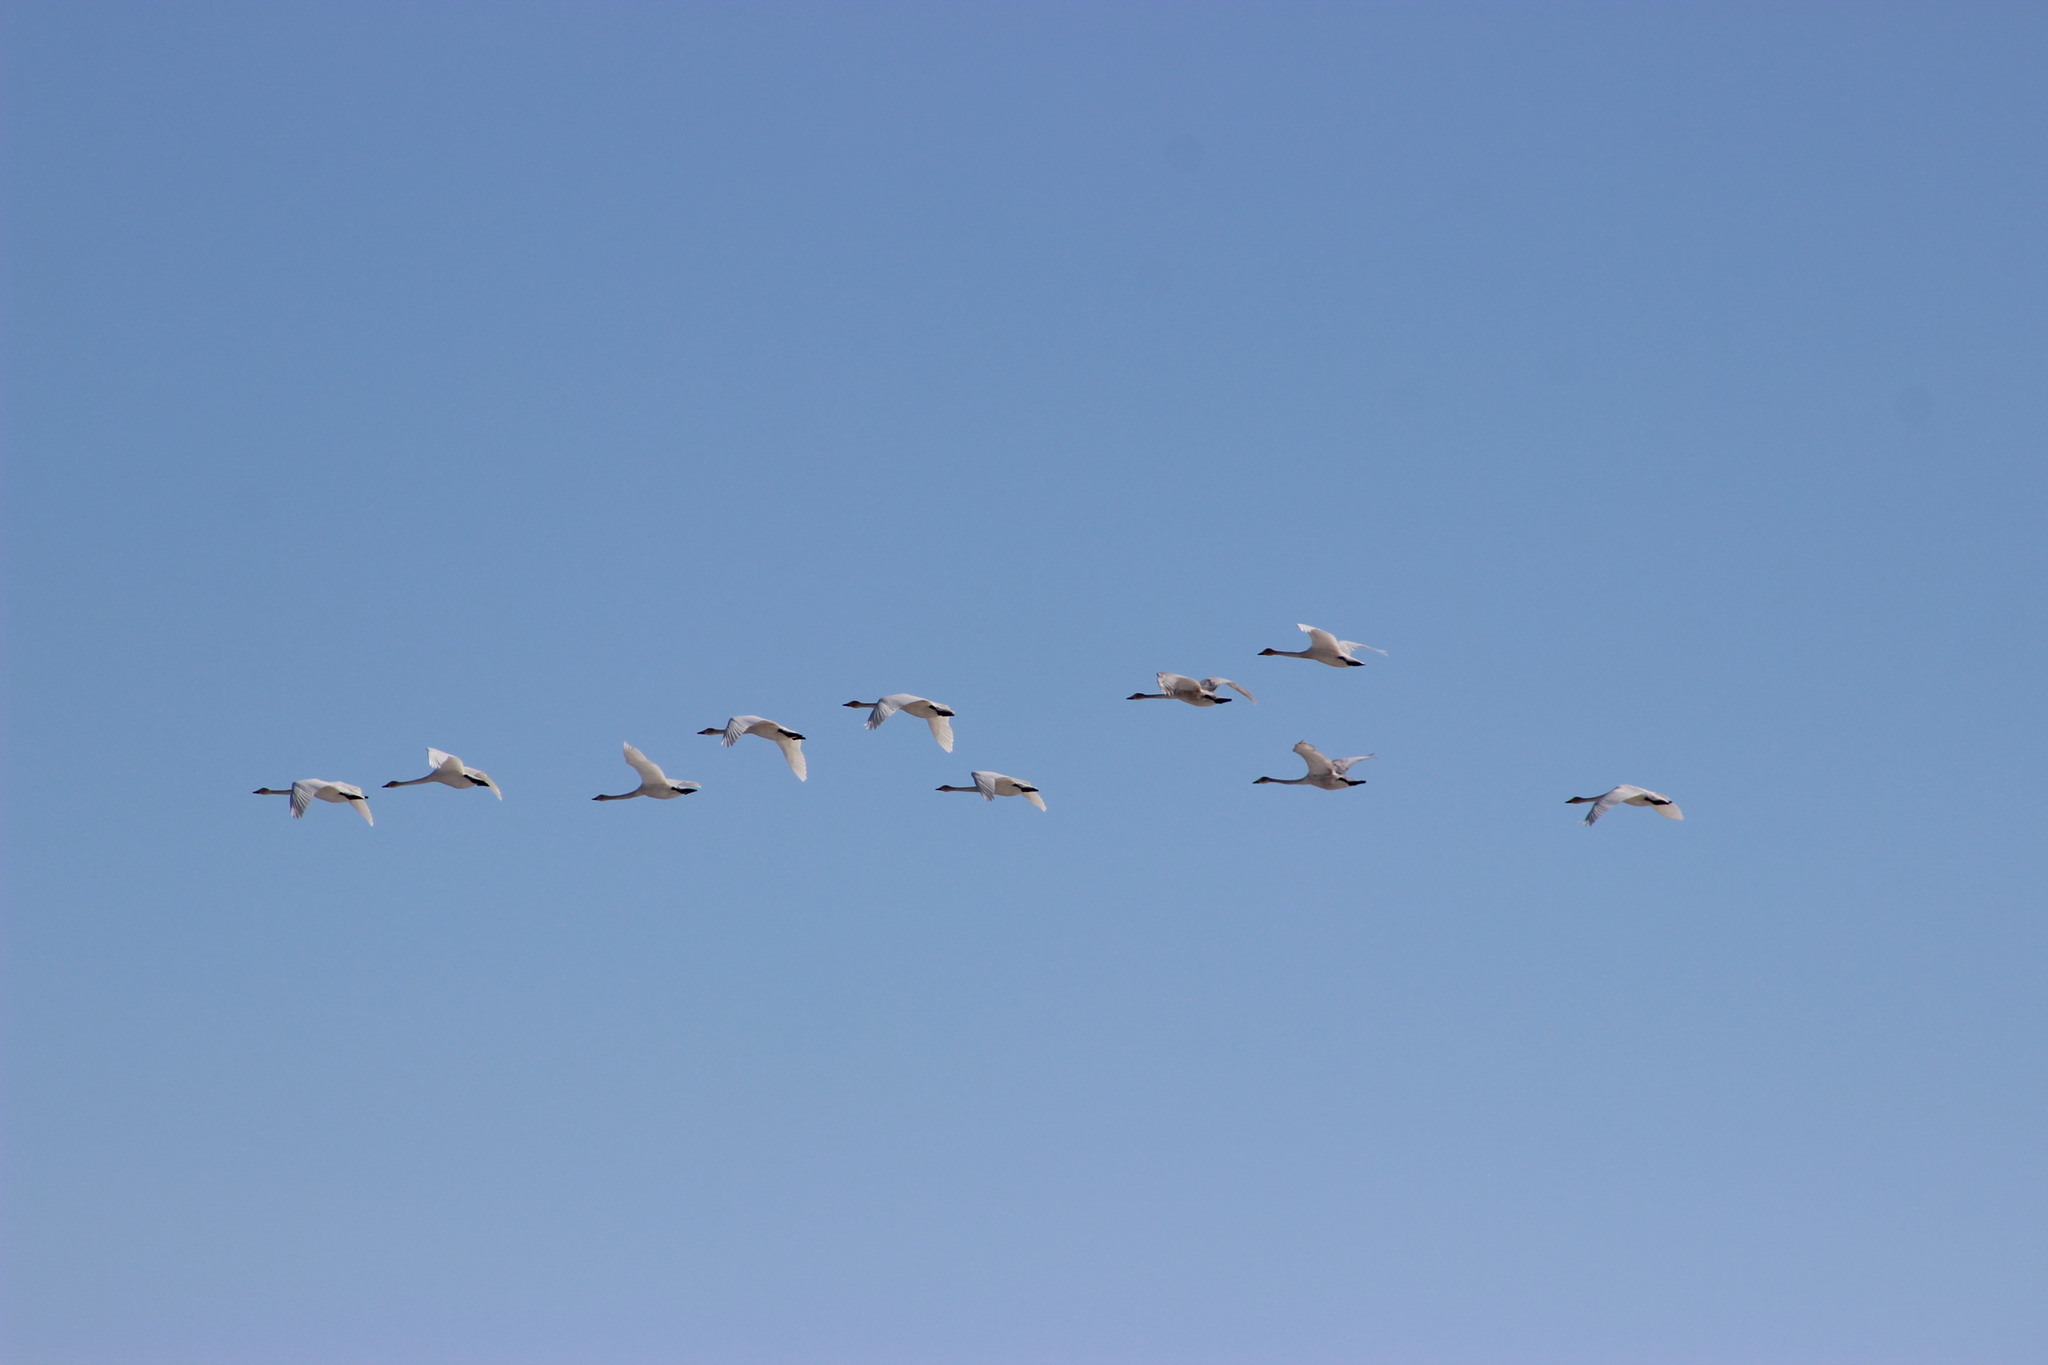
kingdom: Animalia
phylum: Chordata
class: Aves
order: Anseriformes
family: Anatidae
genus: Cygnus
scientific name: Cygnus cygnus
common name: Whooper swan
